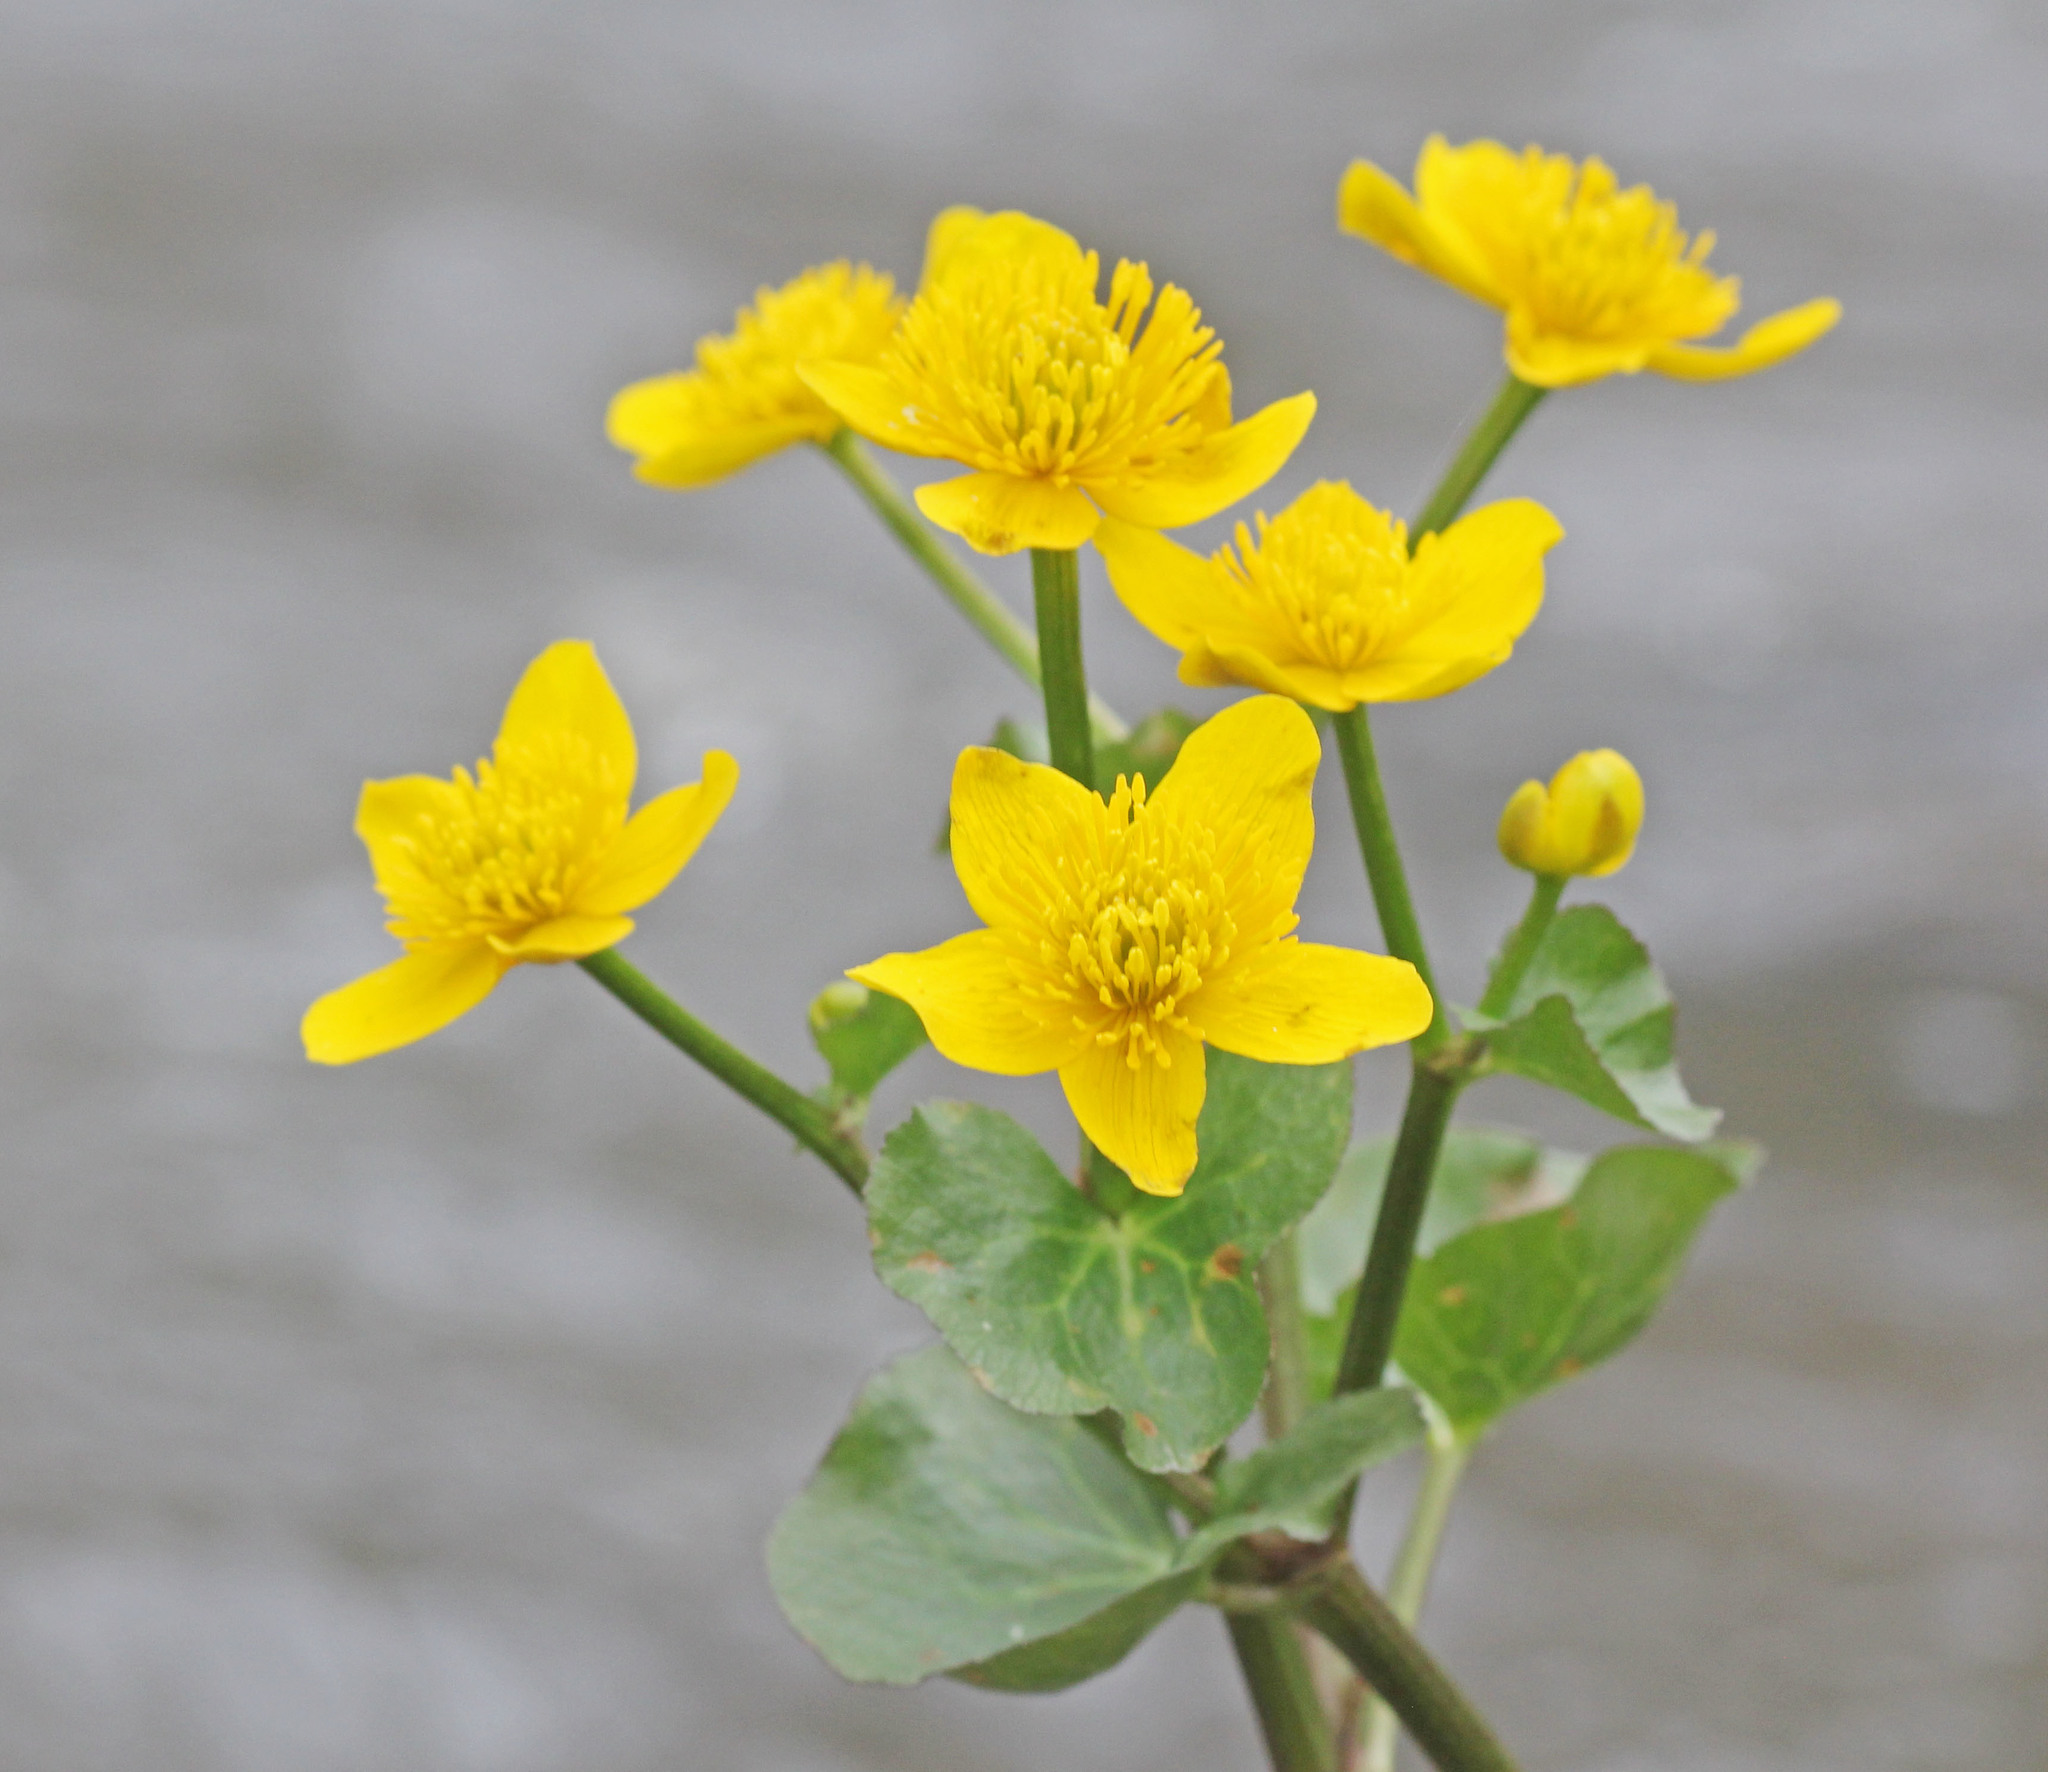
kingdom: Plantae
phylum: Tracheophyta
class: Magnoliopsida
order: Ranunculales
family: Ranunculaceae
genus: Caltha
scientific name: Caltha palustris
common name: Marsh marigold
